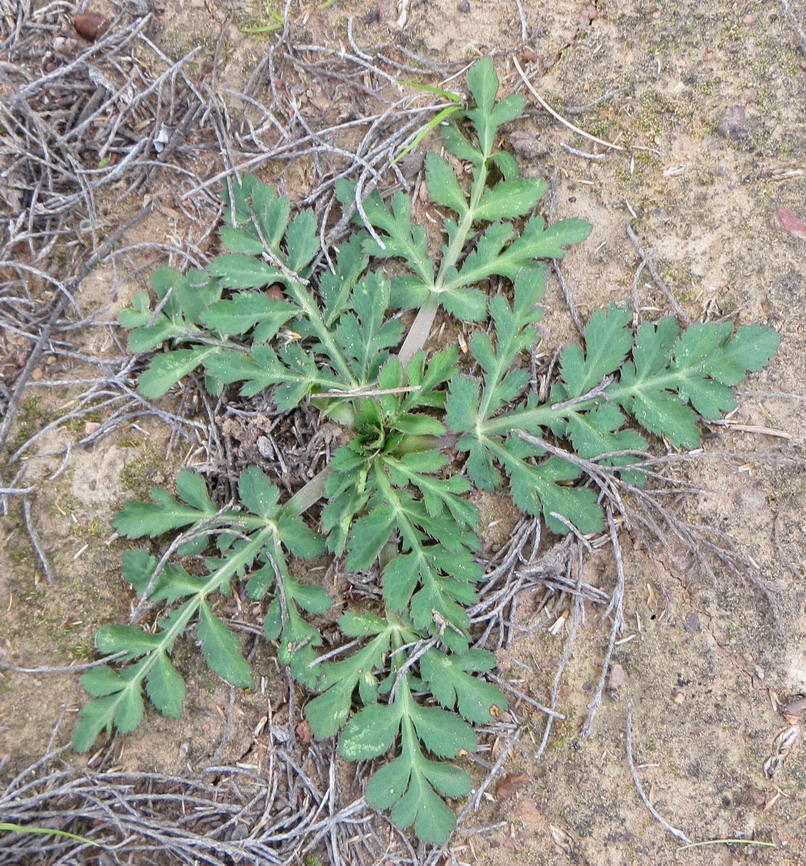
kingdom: Plantae
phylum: Tracheophyta
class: Magnoliopsida
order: Apiales
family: Apiaceae
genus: Lichtensteinia
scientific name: Lichtensteinia interrupta
